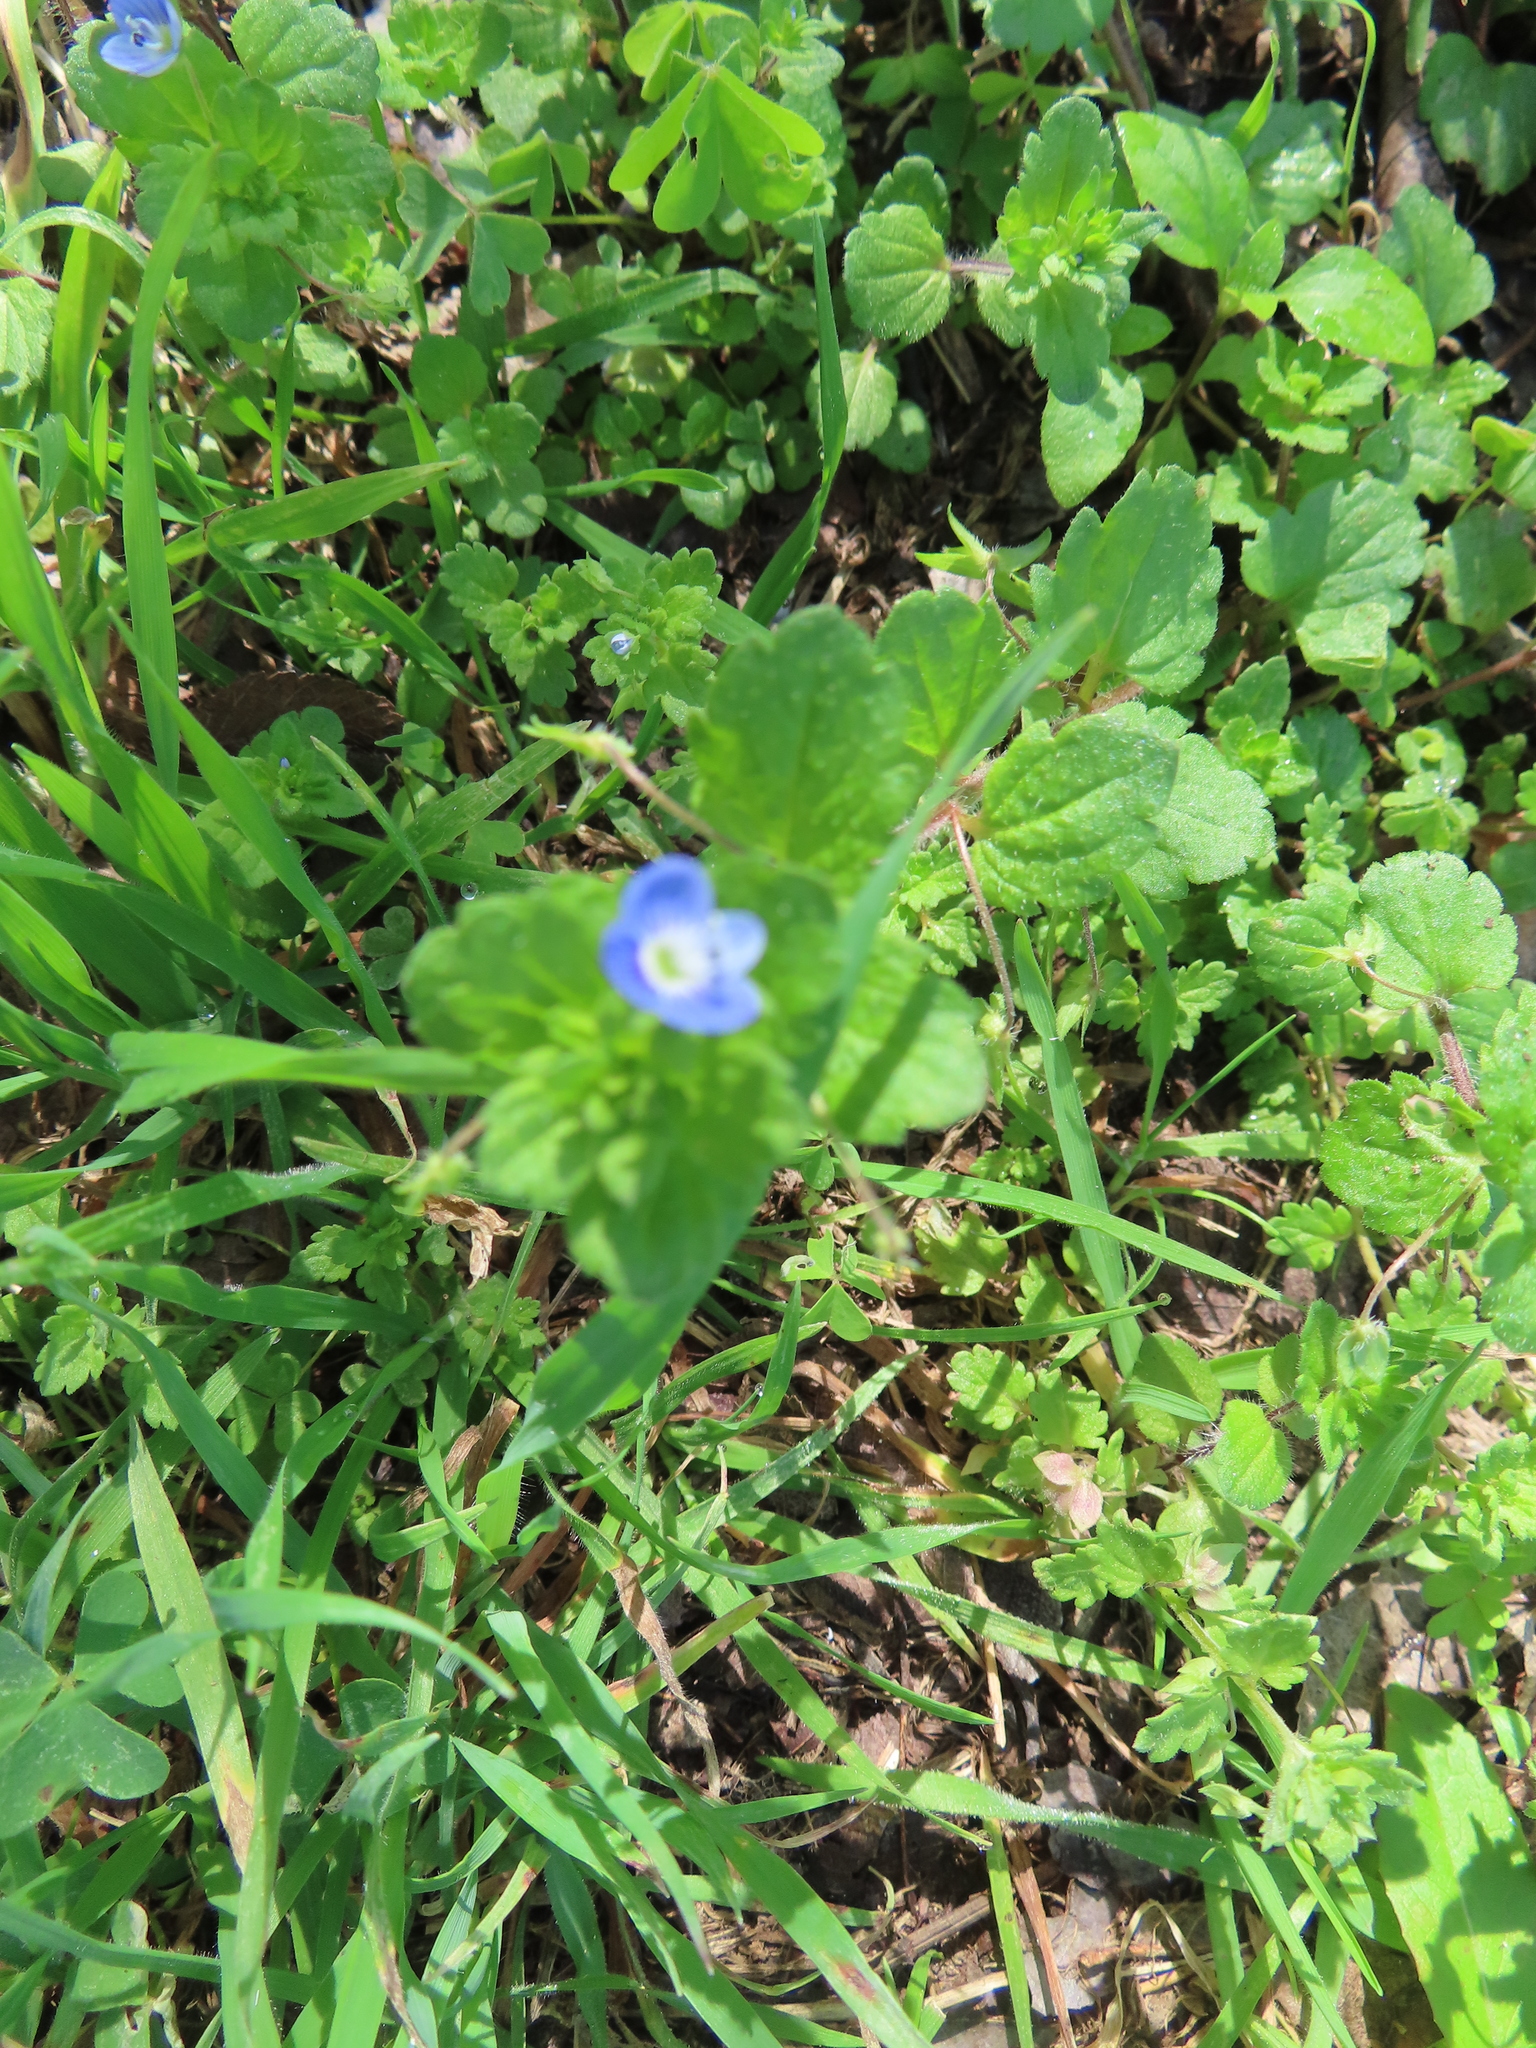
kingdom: Plantae
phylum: Tracheophyta
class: Magnoliopsida
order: Lamiales
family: Plantaginaceae
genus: Veronica
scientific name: Veronica persica
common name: Common field-speedwell
